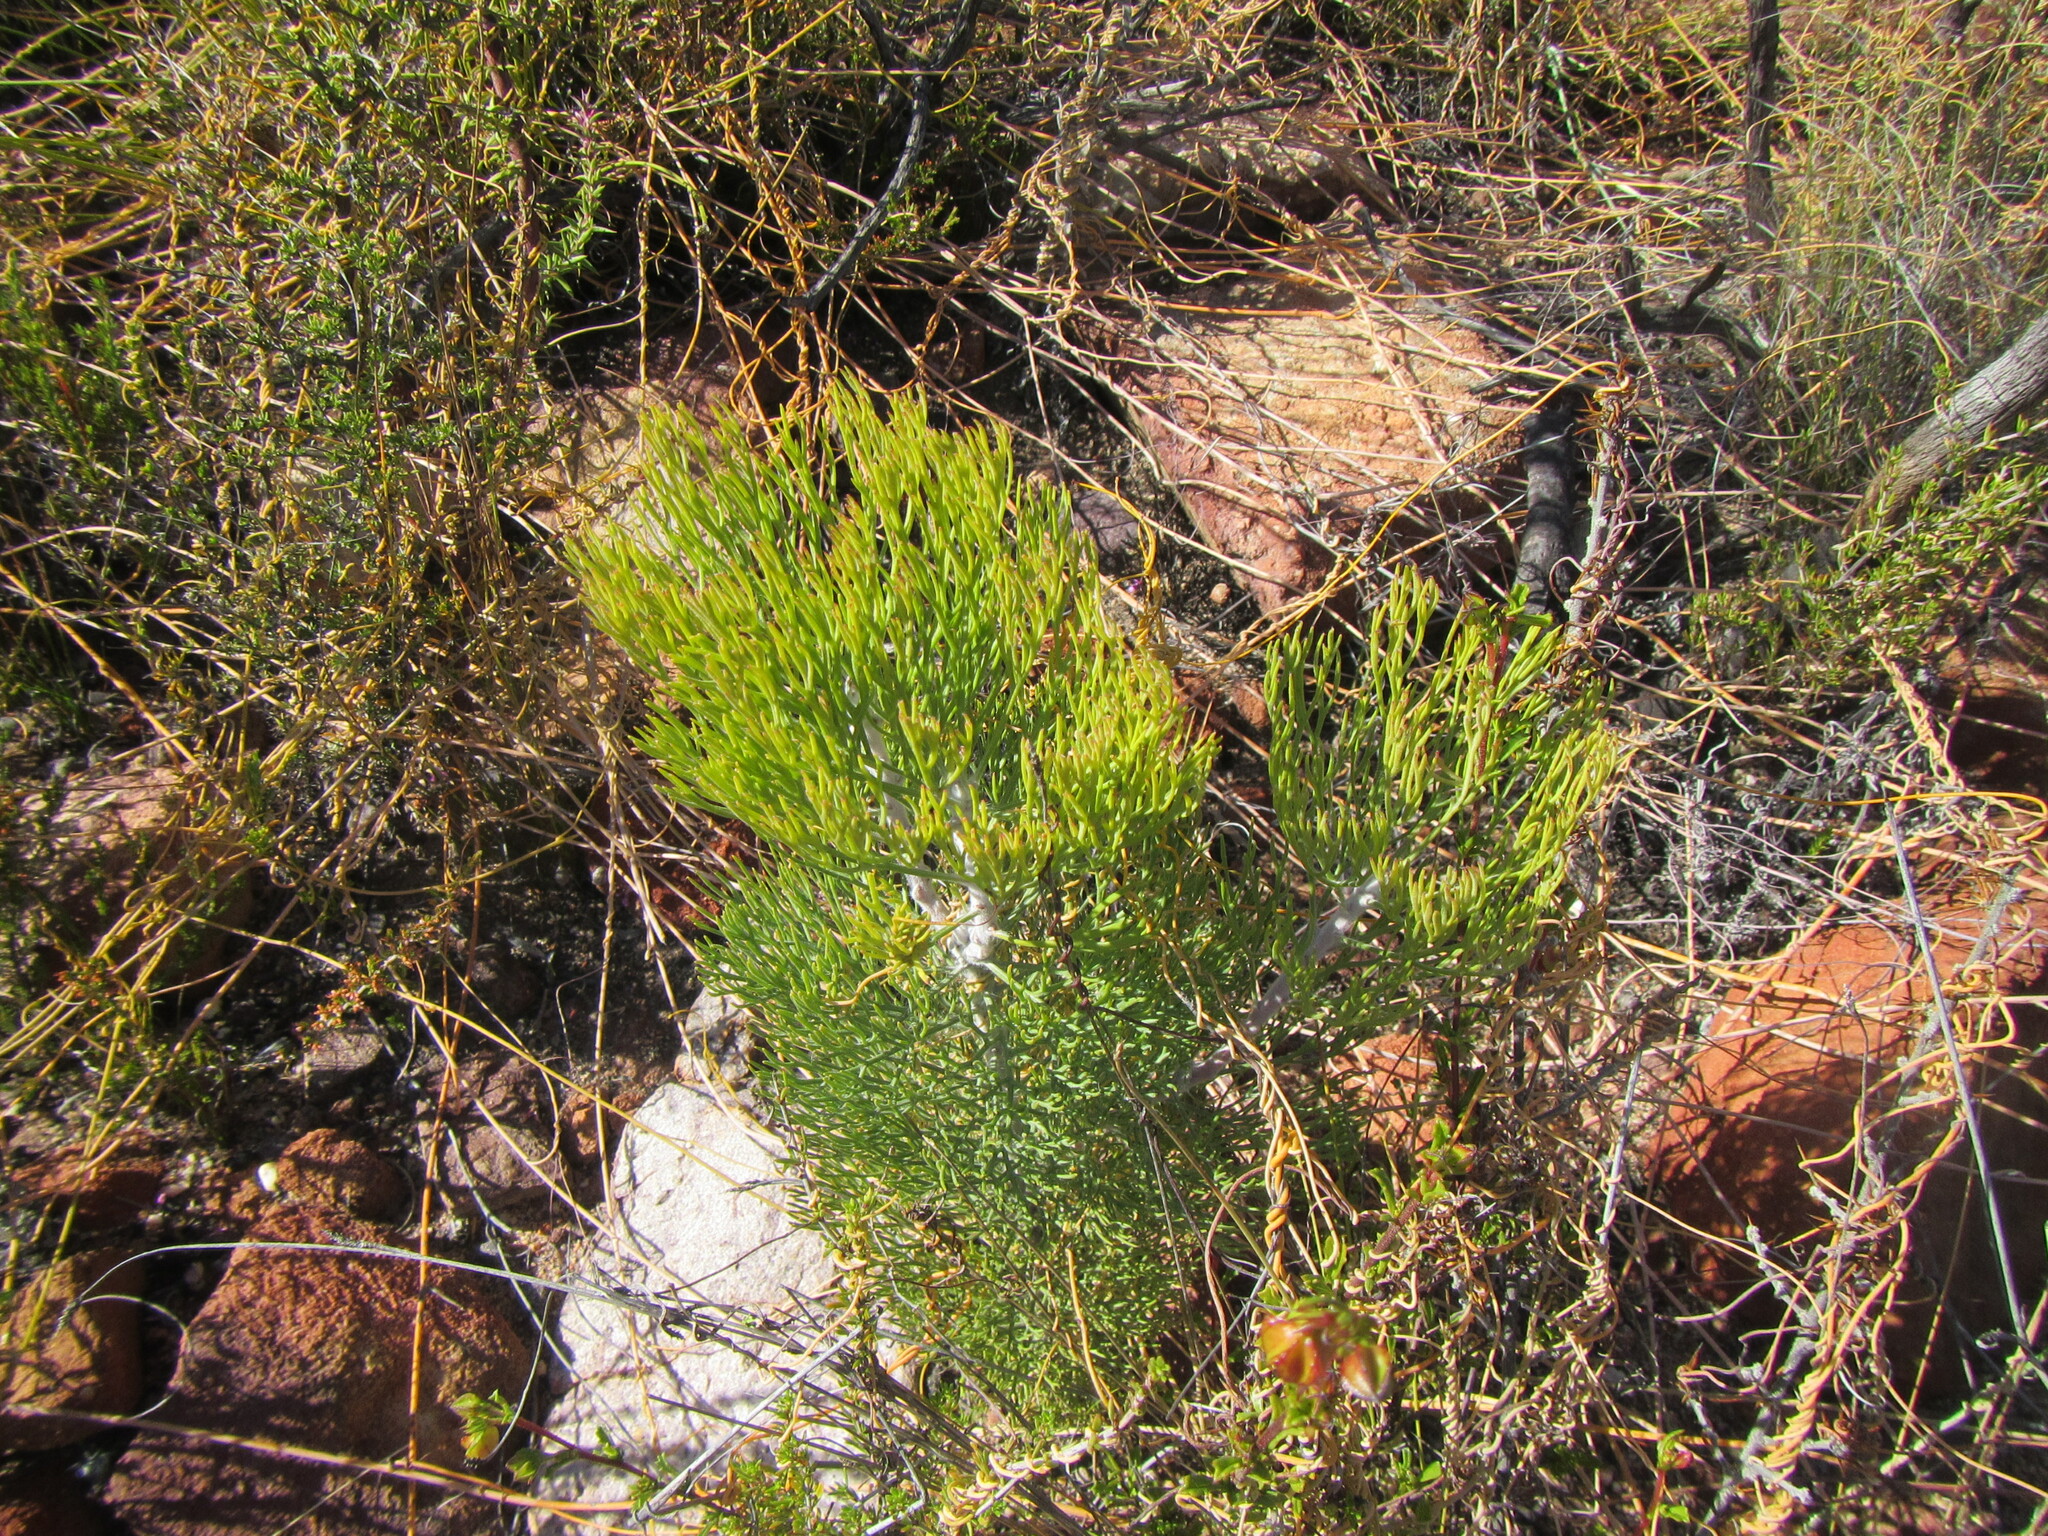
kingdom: Plantae
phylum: Tracheophyta
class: Magnoliopsida
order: Proteales
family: Proteaceae
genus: Paranomus
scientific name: Paranomus dispersus
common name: Long-head sceptre
